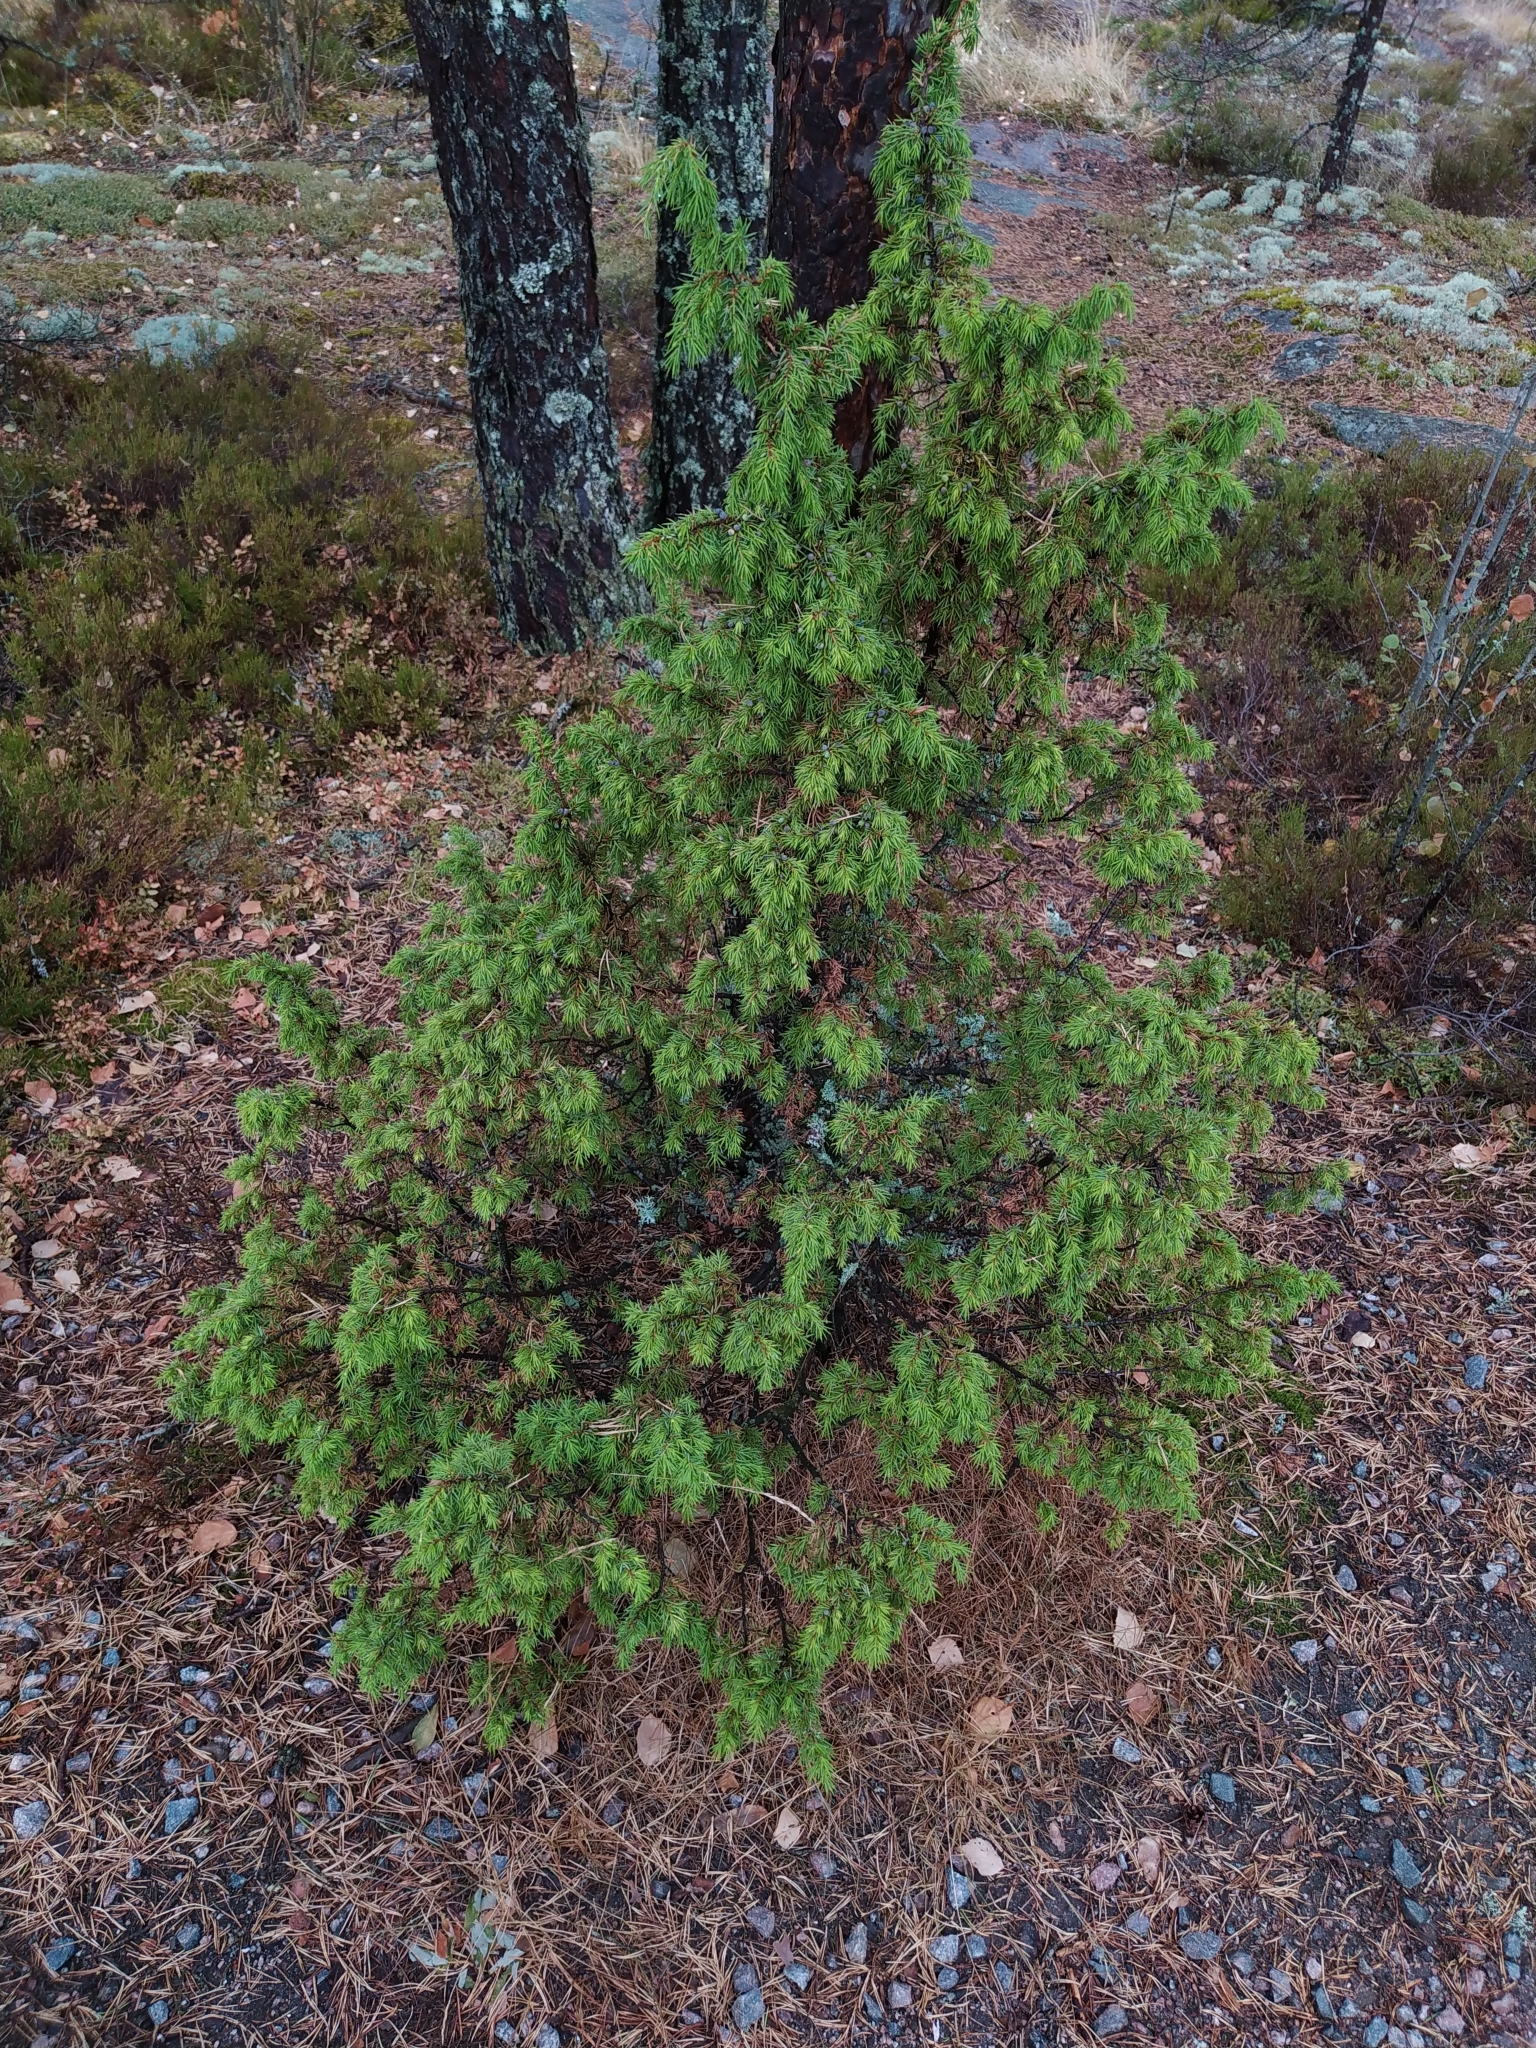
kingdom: Plantae
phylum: Tracheophyta
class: Pinopsida
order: Pinales
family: Cupressaceae
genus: Juniperus
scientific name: Juniperus communis
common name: Common juniper
